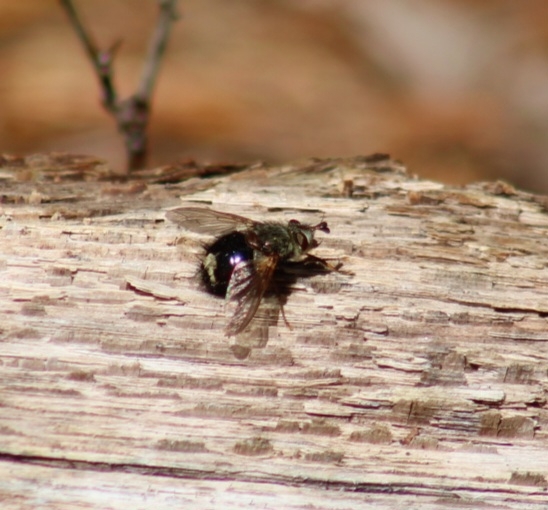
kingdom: Animalia
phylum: Arthropoda
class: Insecta
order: Diptera
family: Tachinidae
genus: Epalpus
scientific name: Epalpus signifer
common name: Early tachinid fly
